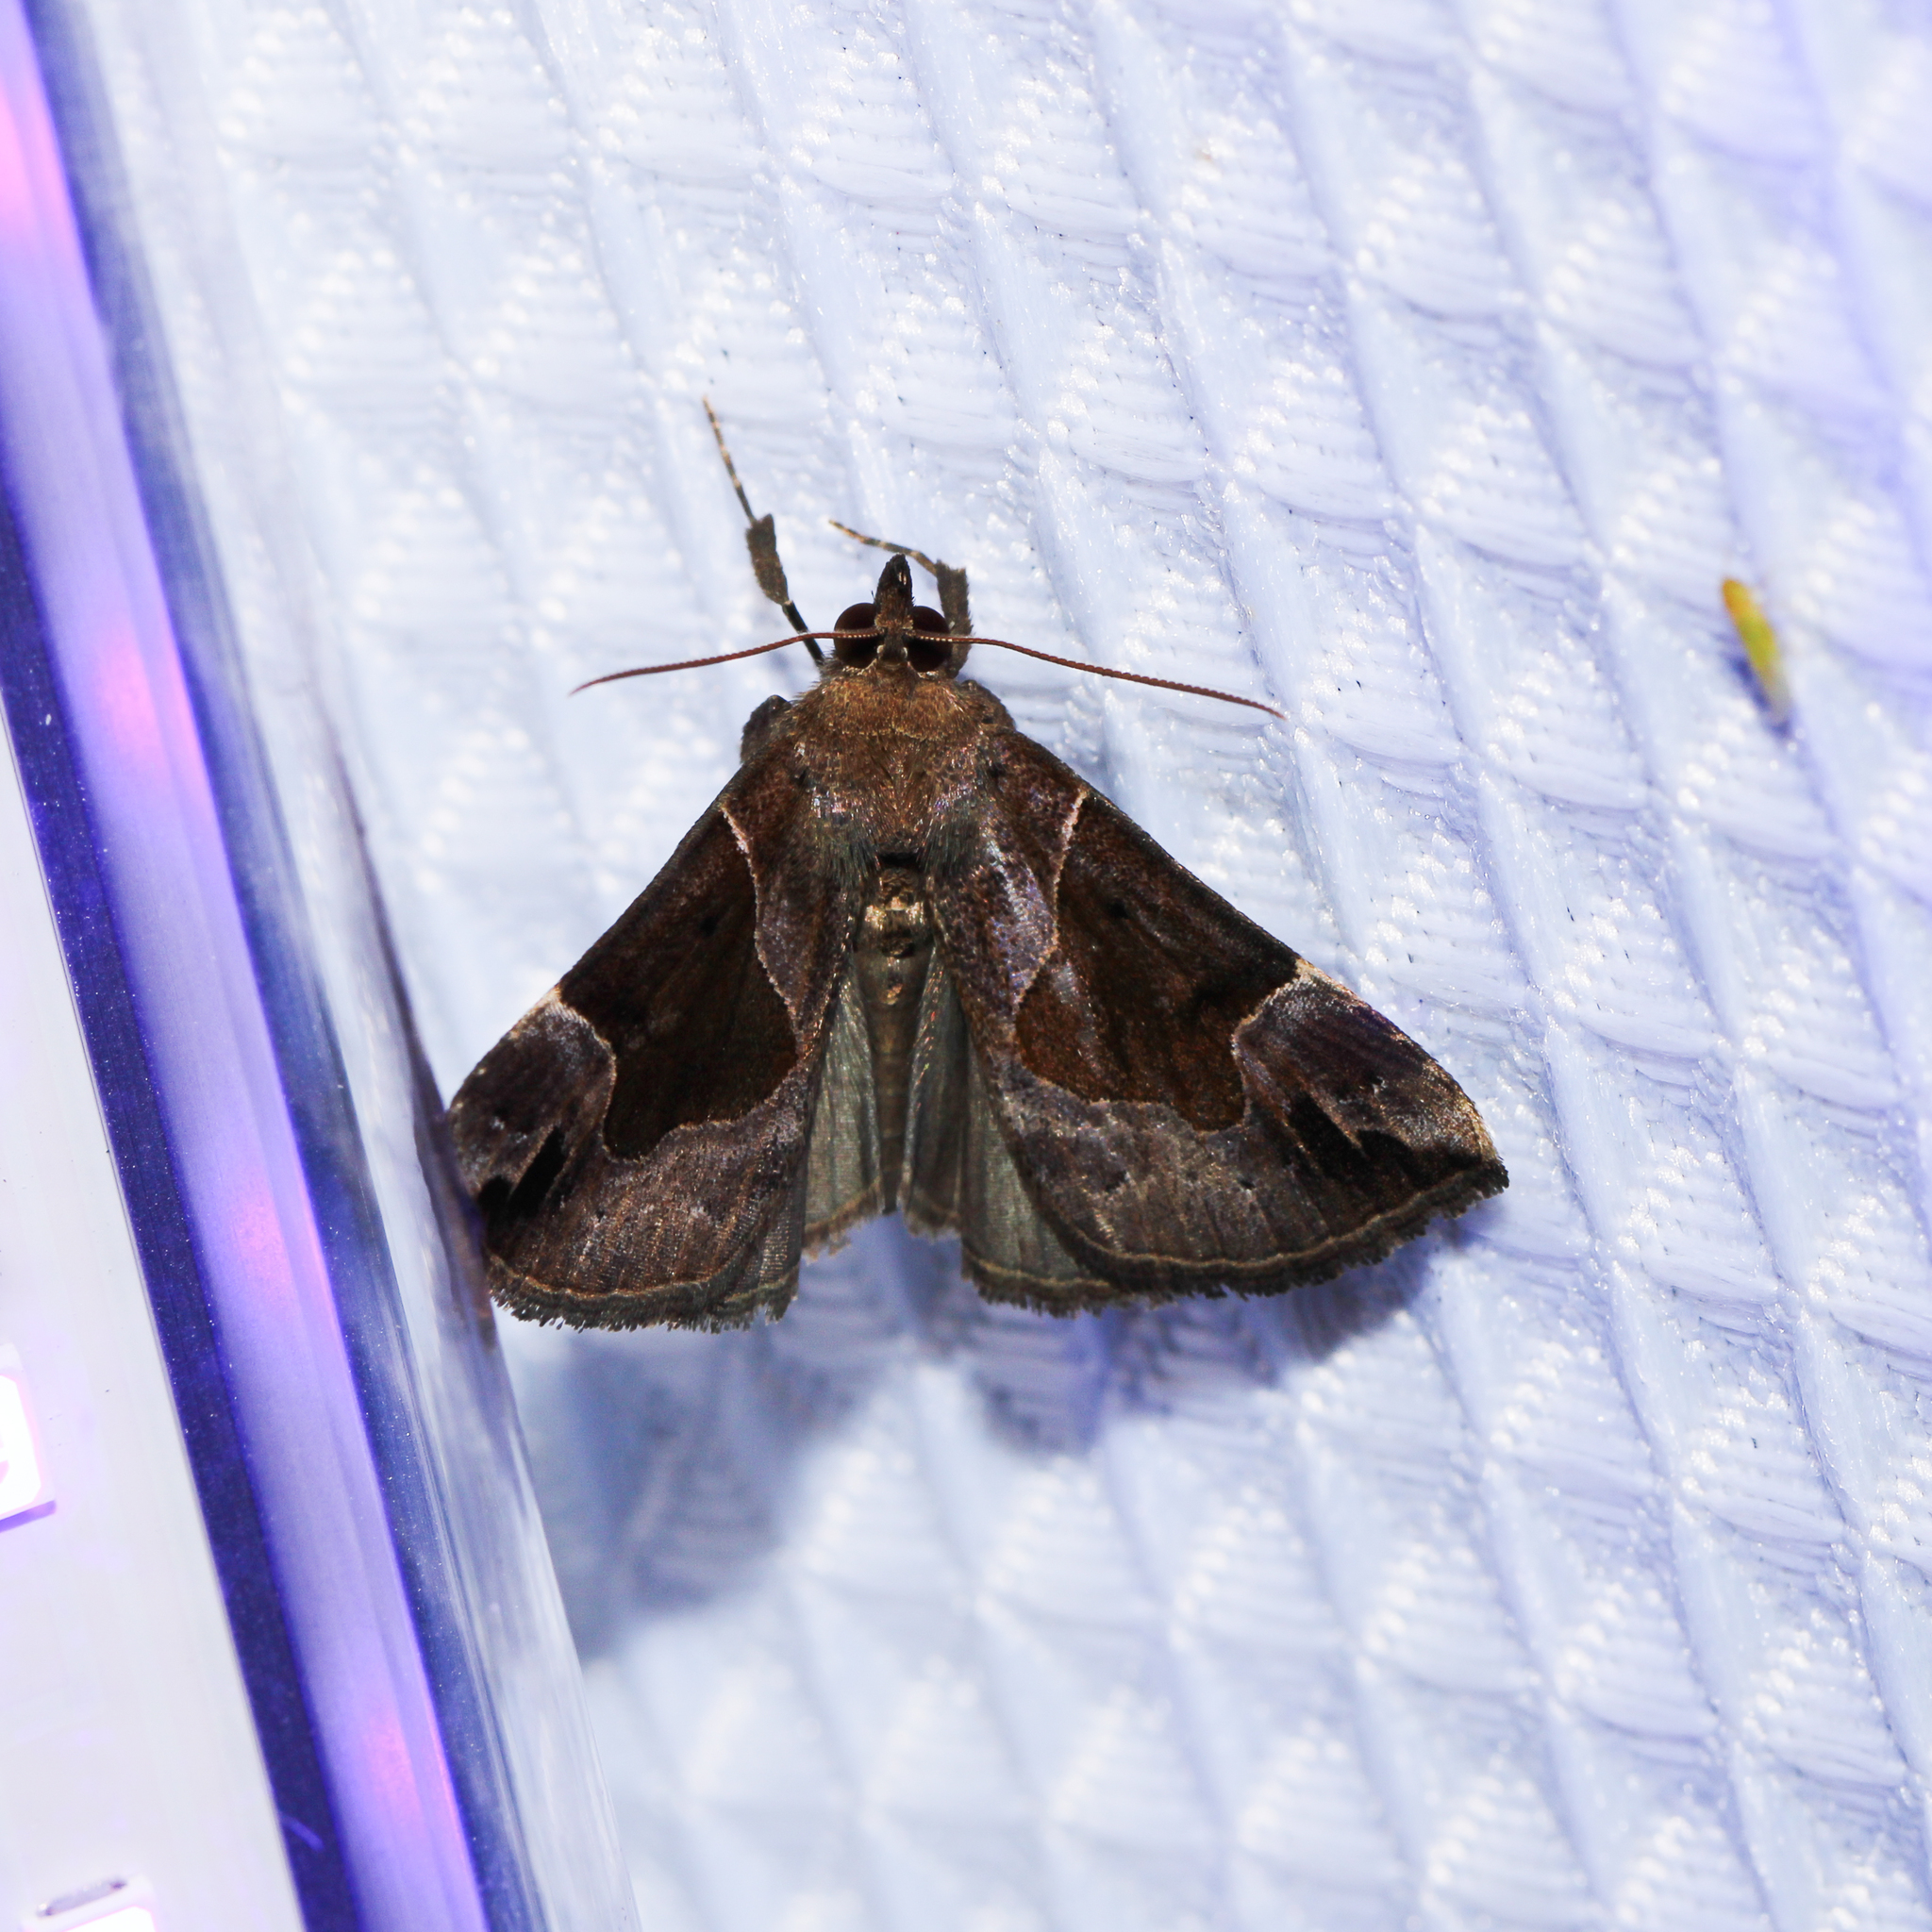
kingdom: Animalia
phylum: Arthropoda
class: Insecta
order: Lepidoptera
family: Erebidae
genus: Hypena
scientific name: Hypena manalis
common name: Flowing-line bomolocha moth
